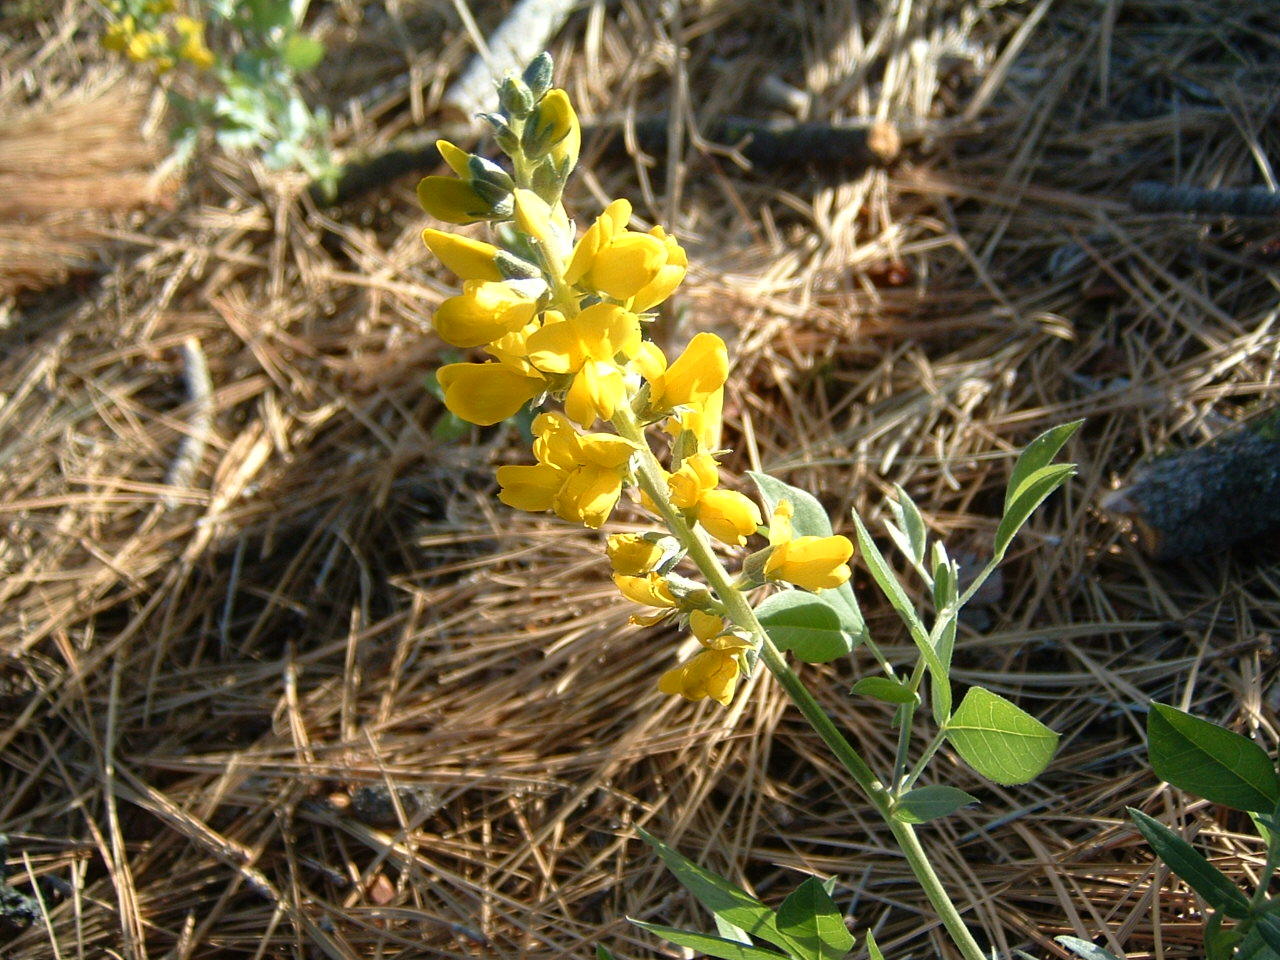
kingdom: Plantae
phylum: Tracheophyta
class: Magnoliopsida
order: Fabales
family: Fabaceae
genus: Thermopsis
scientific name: Thermopsis californica
